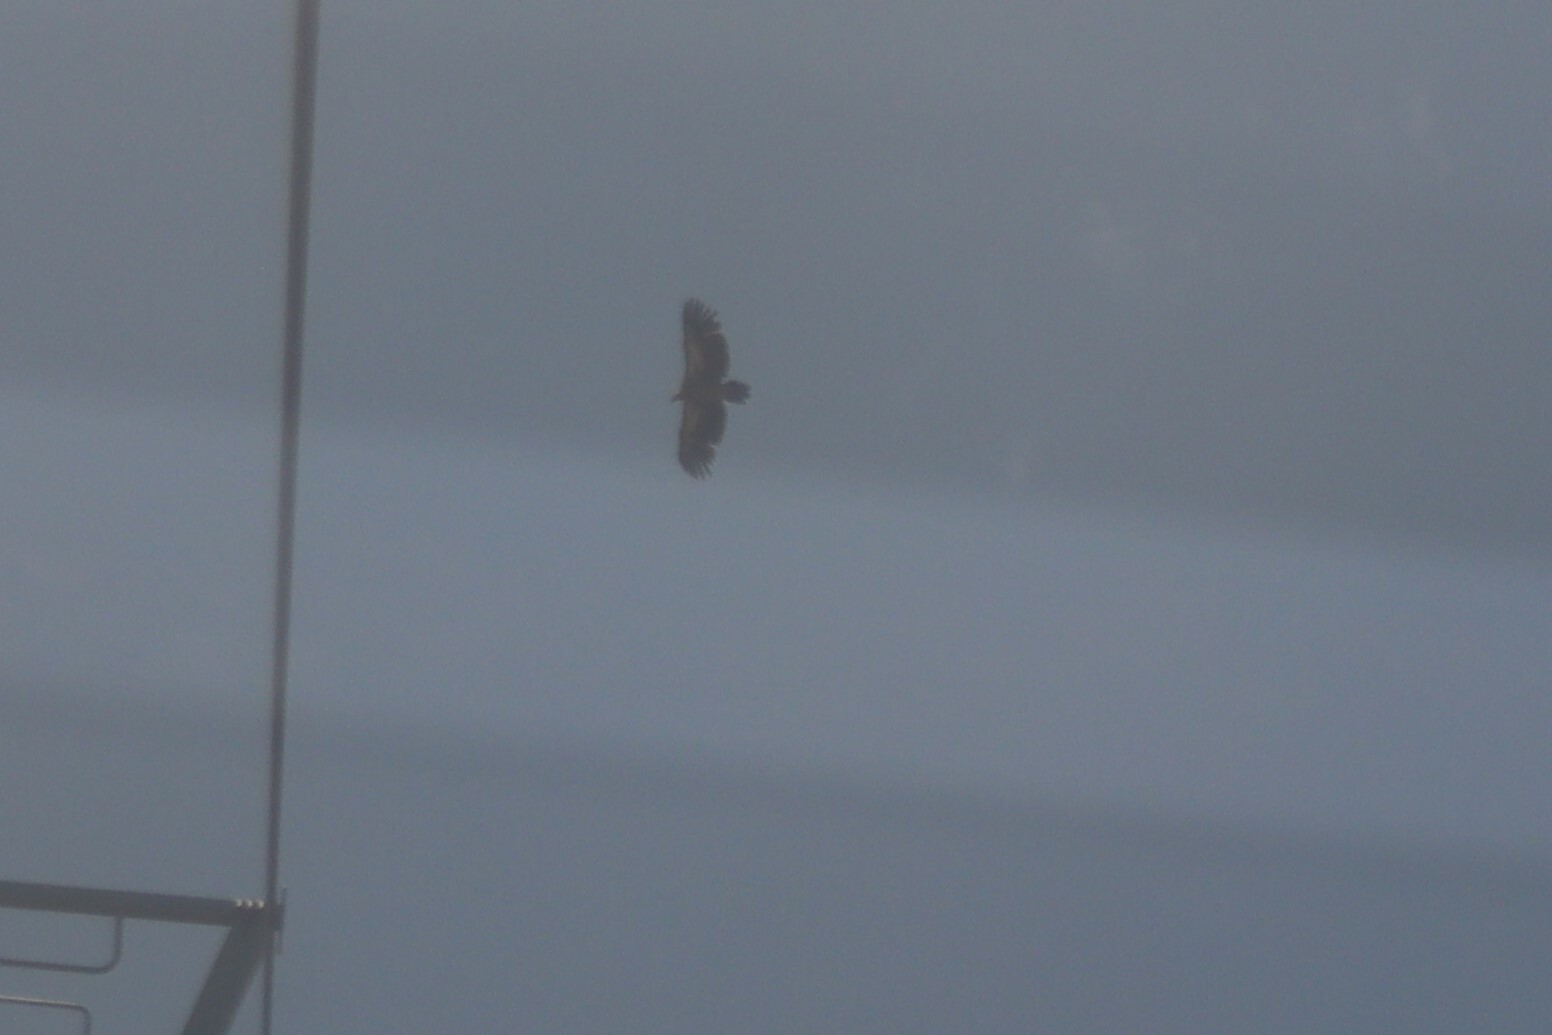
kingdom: Animalia
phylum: Chordata
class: Aves
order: Accipitriformes
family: Accipitridae
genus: Gyps
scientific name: Gyps himalayensis
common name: Himalayan griffon
